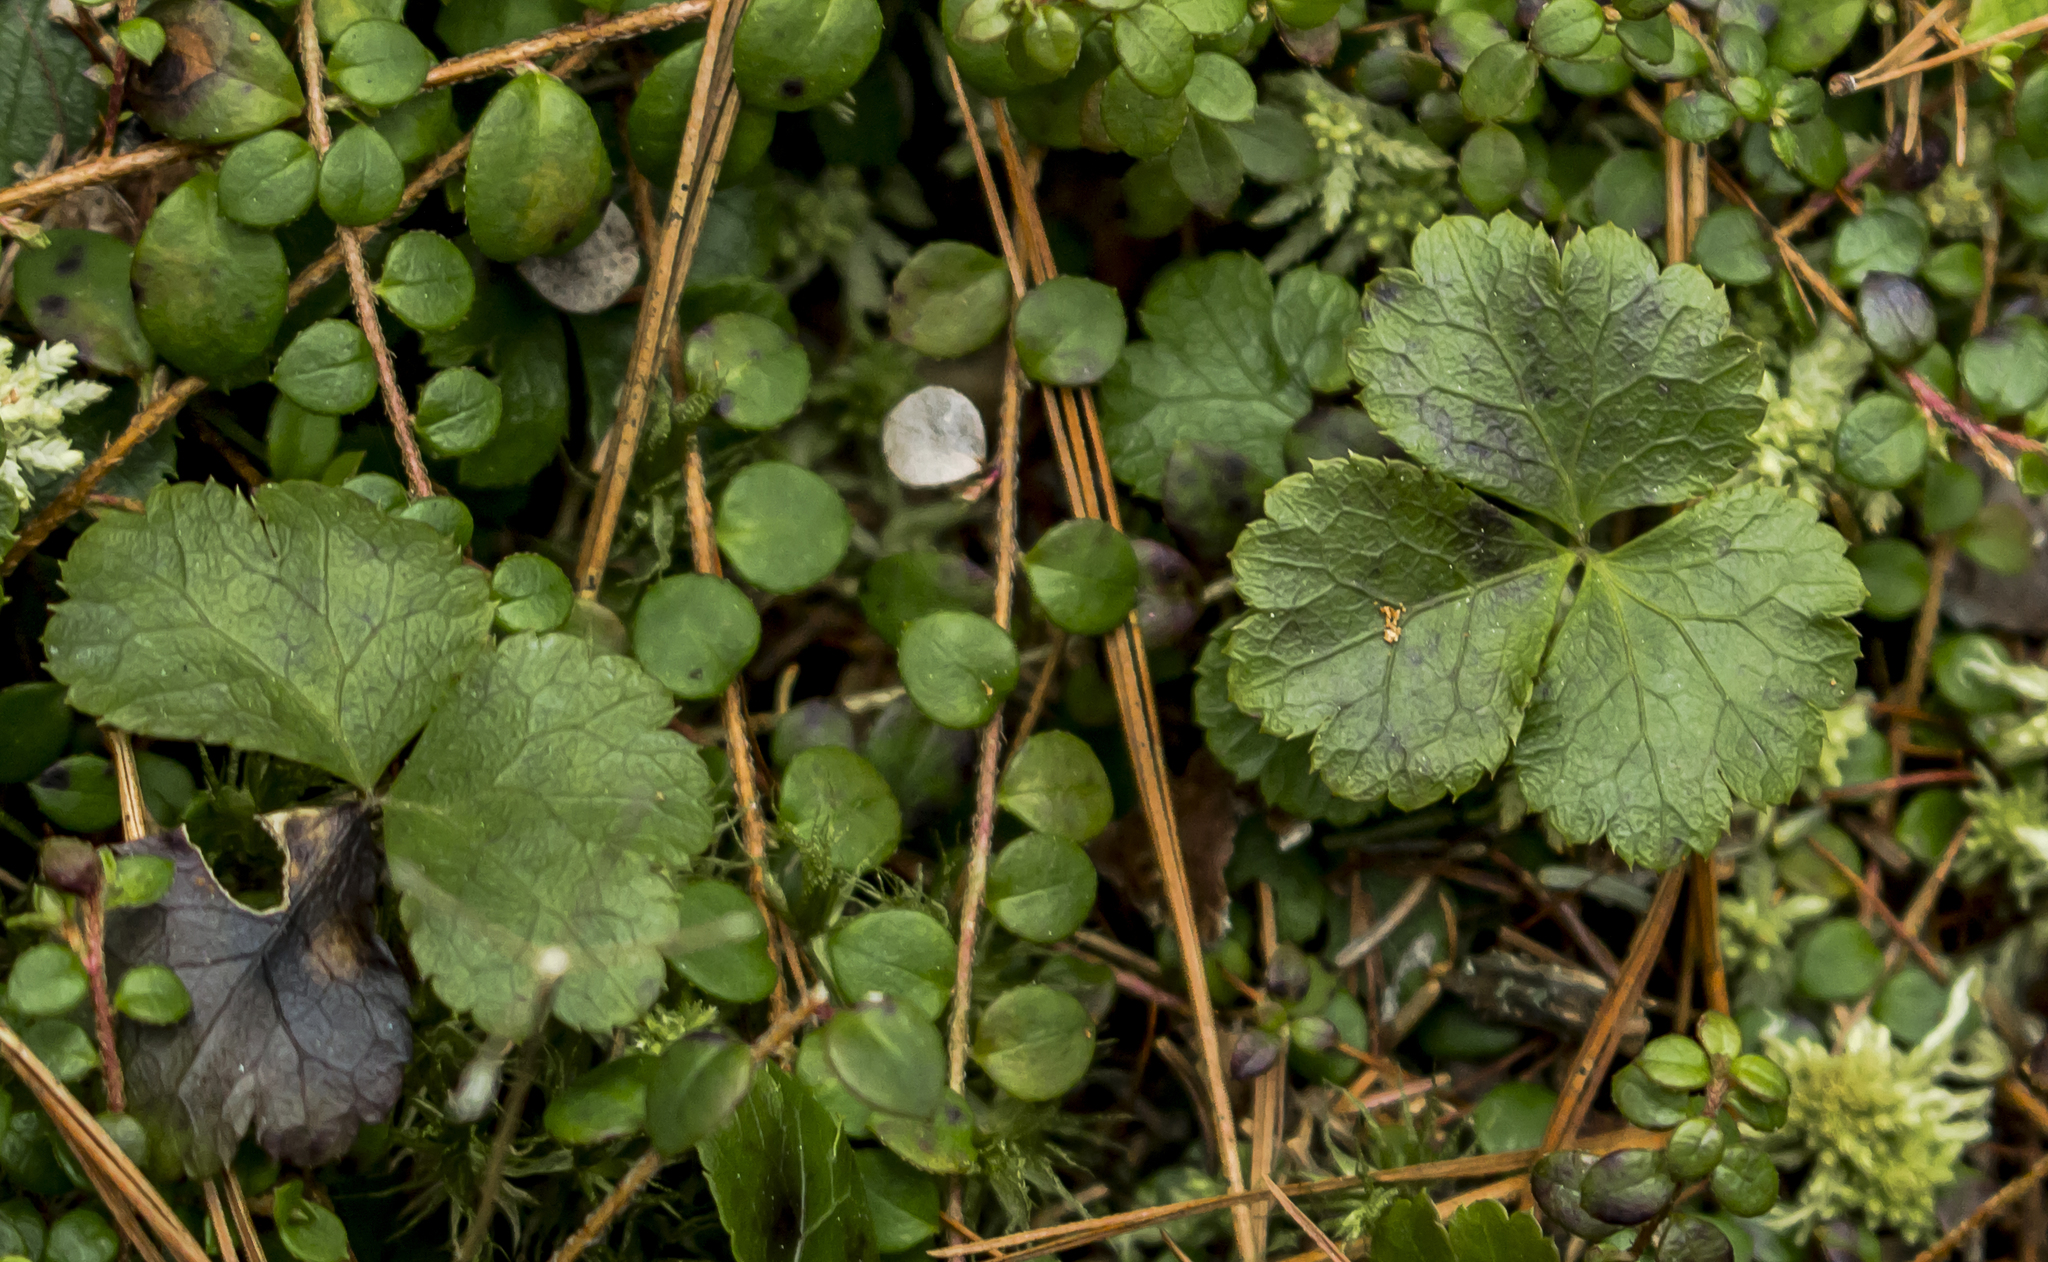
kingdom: Plantae
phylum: Tracheophyta
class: Magnoliopsida
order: Ranunculales
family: Ranunculaceae
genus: Coptis
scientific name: Coptis trifolia
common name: Canker-root
